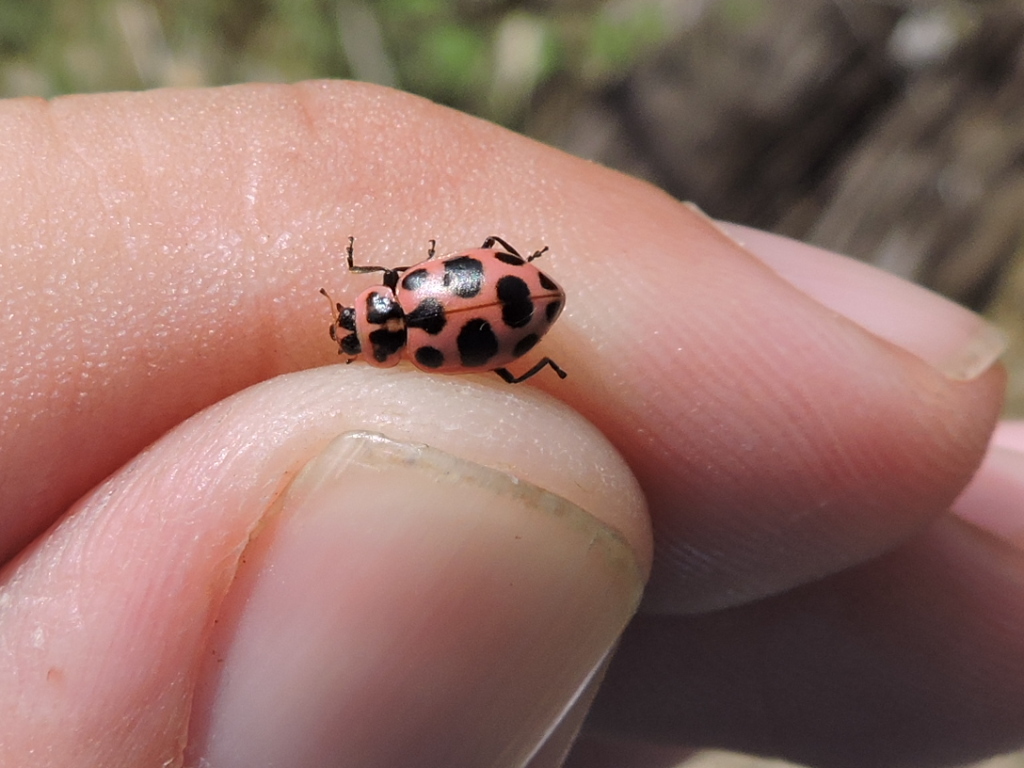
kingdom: Animalia
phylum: Arthropoda
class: Insecta
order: Coleoptera
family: Coccinellidae
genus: Coleomegilla
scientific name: Coleomegilla maculata
